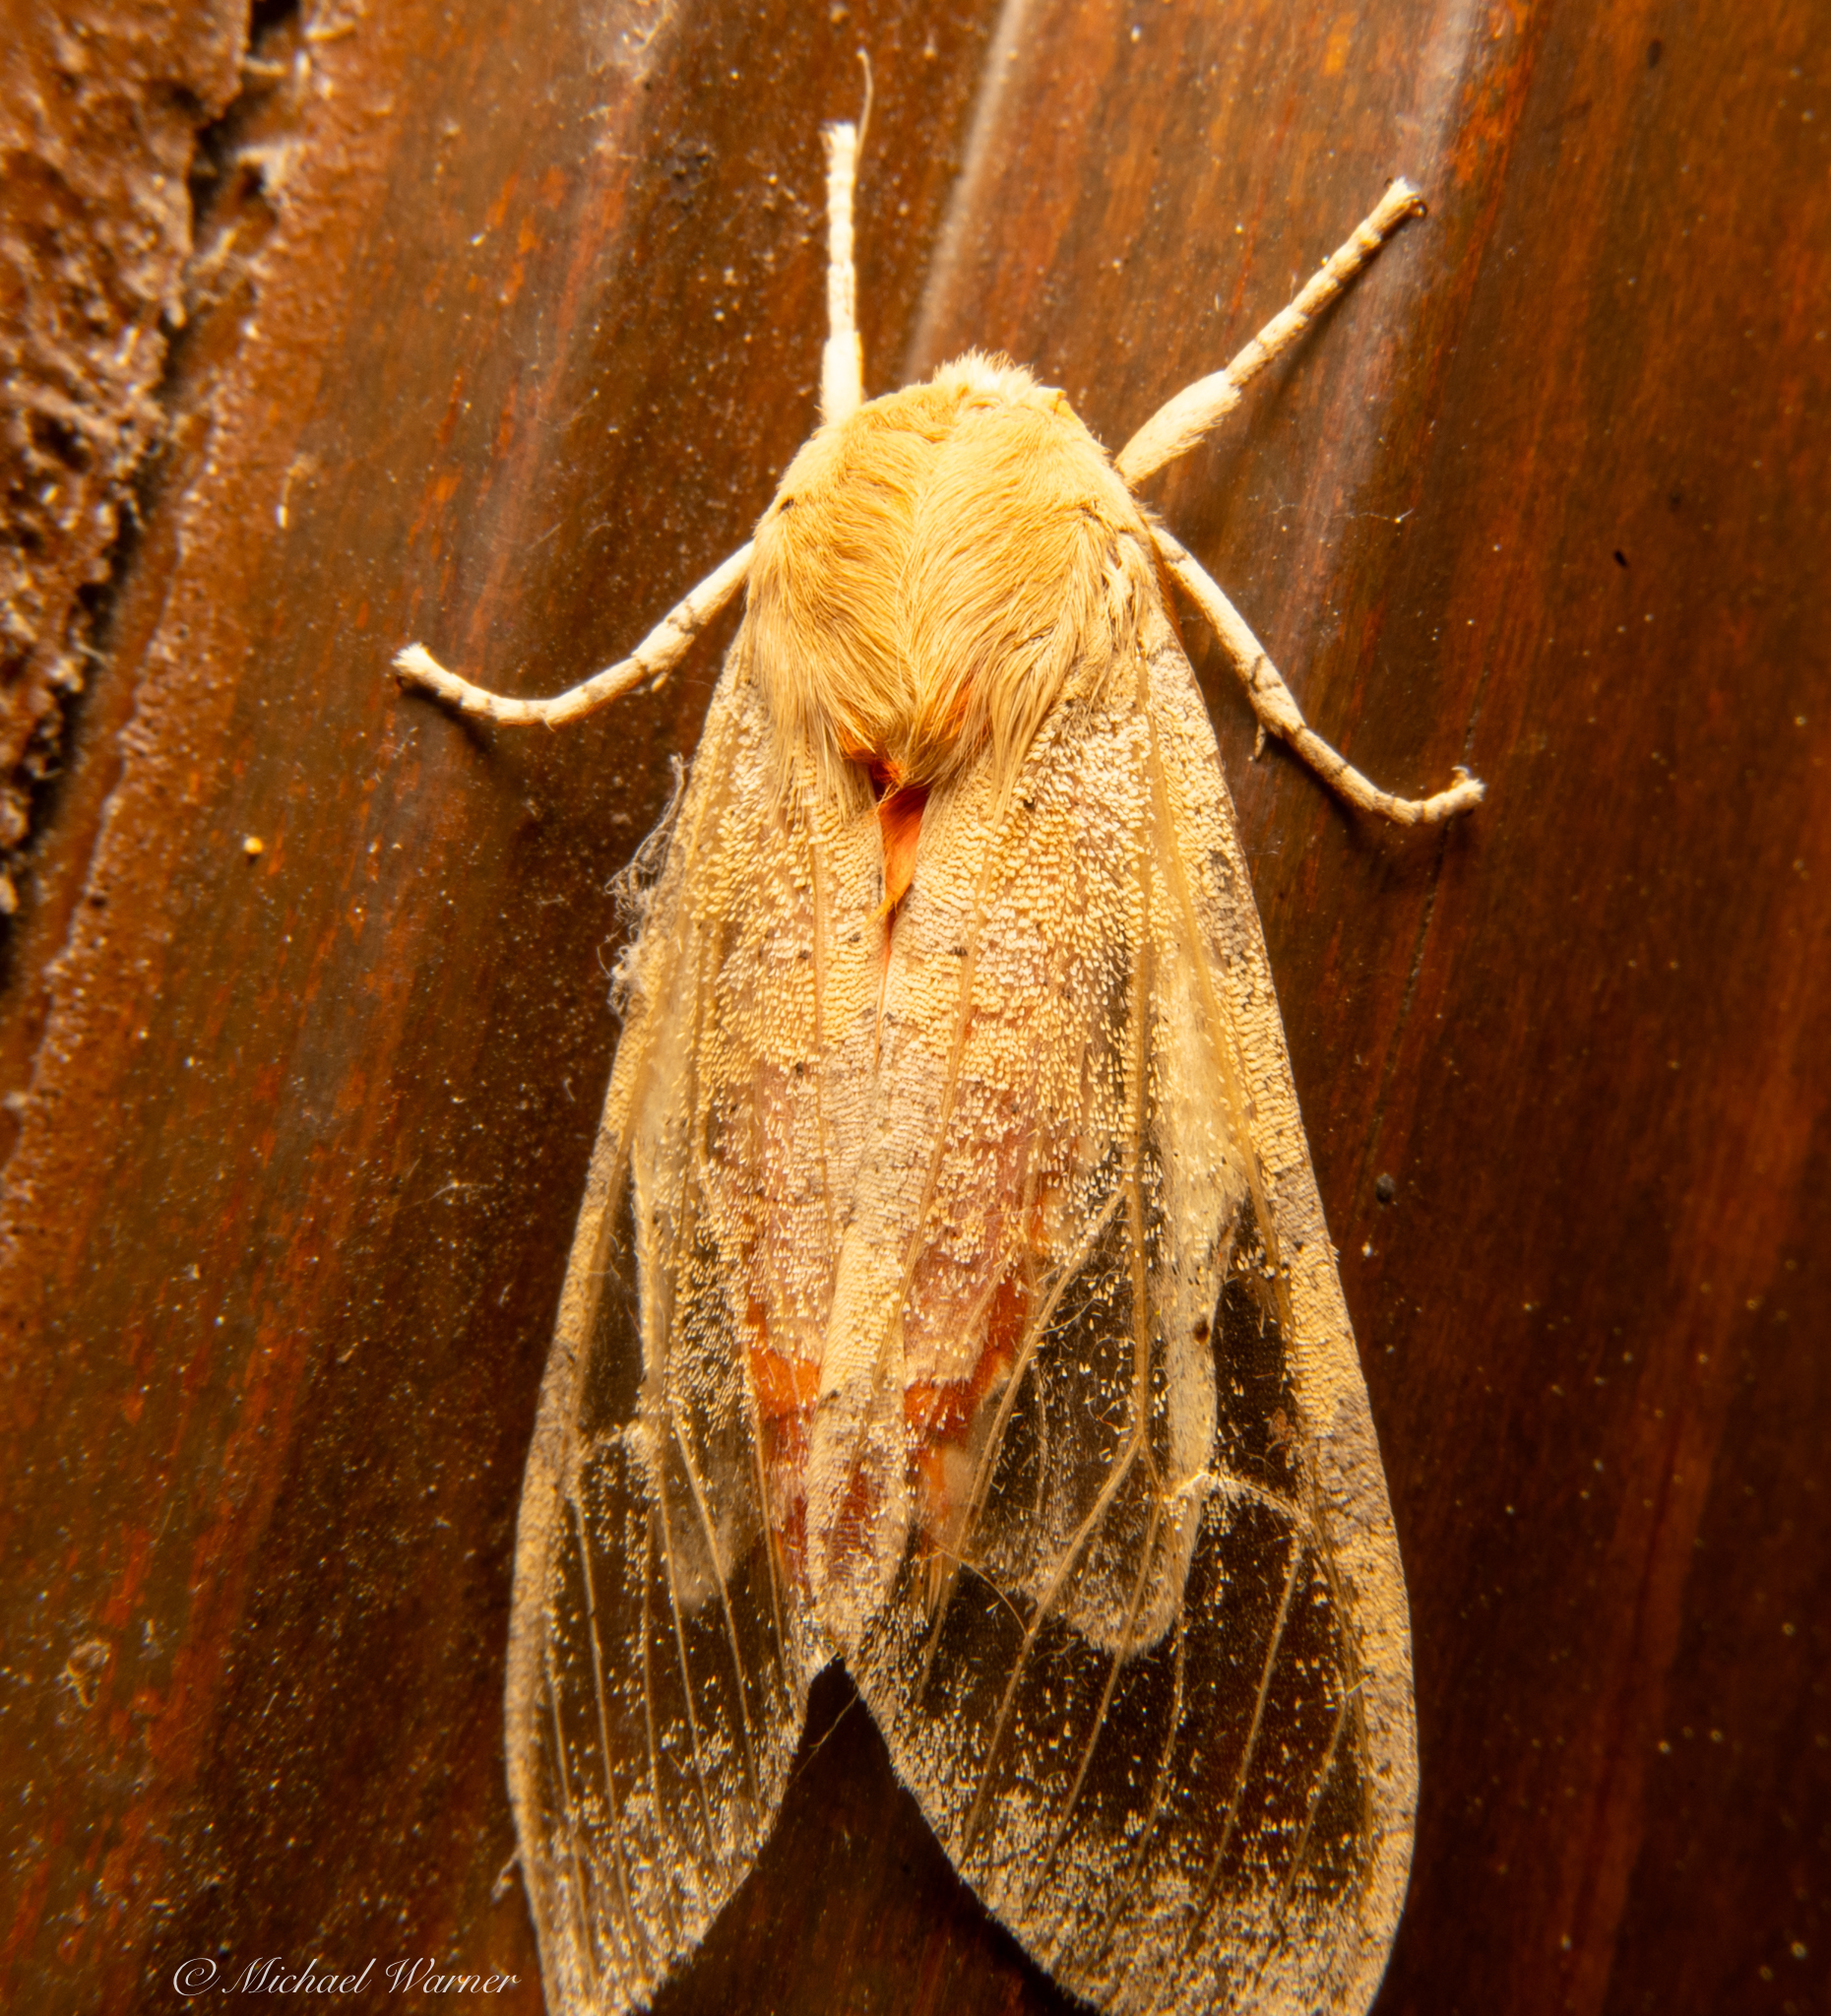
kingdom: Animalia
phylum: Arthropoda
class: Insecta
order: Lepidoptera
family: Erebidae
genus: Hemihyalea
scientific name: Hemihyalea edwardsii
